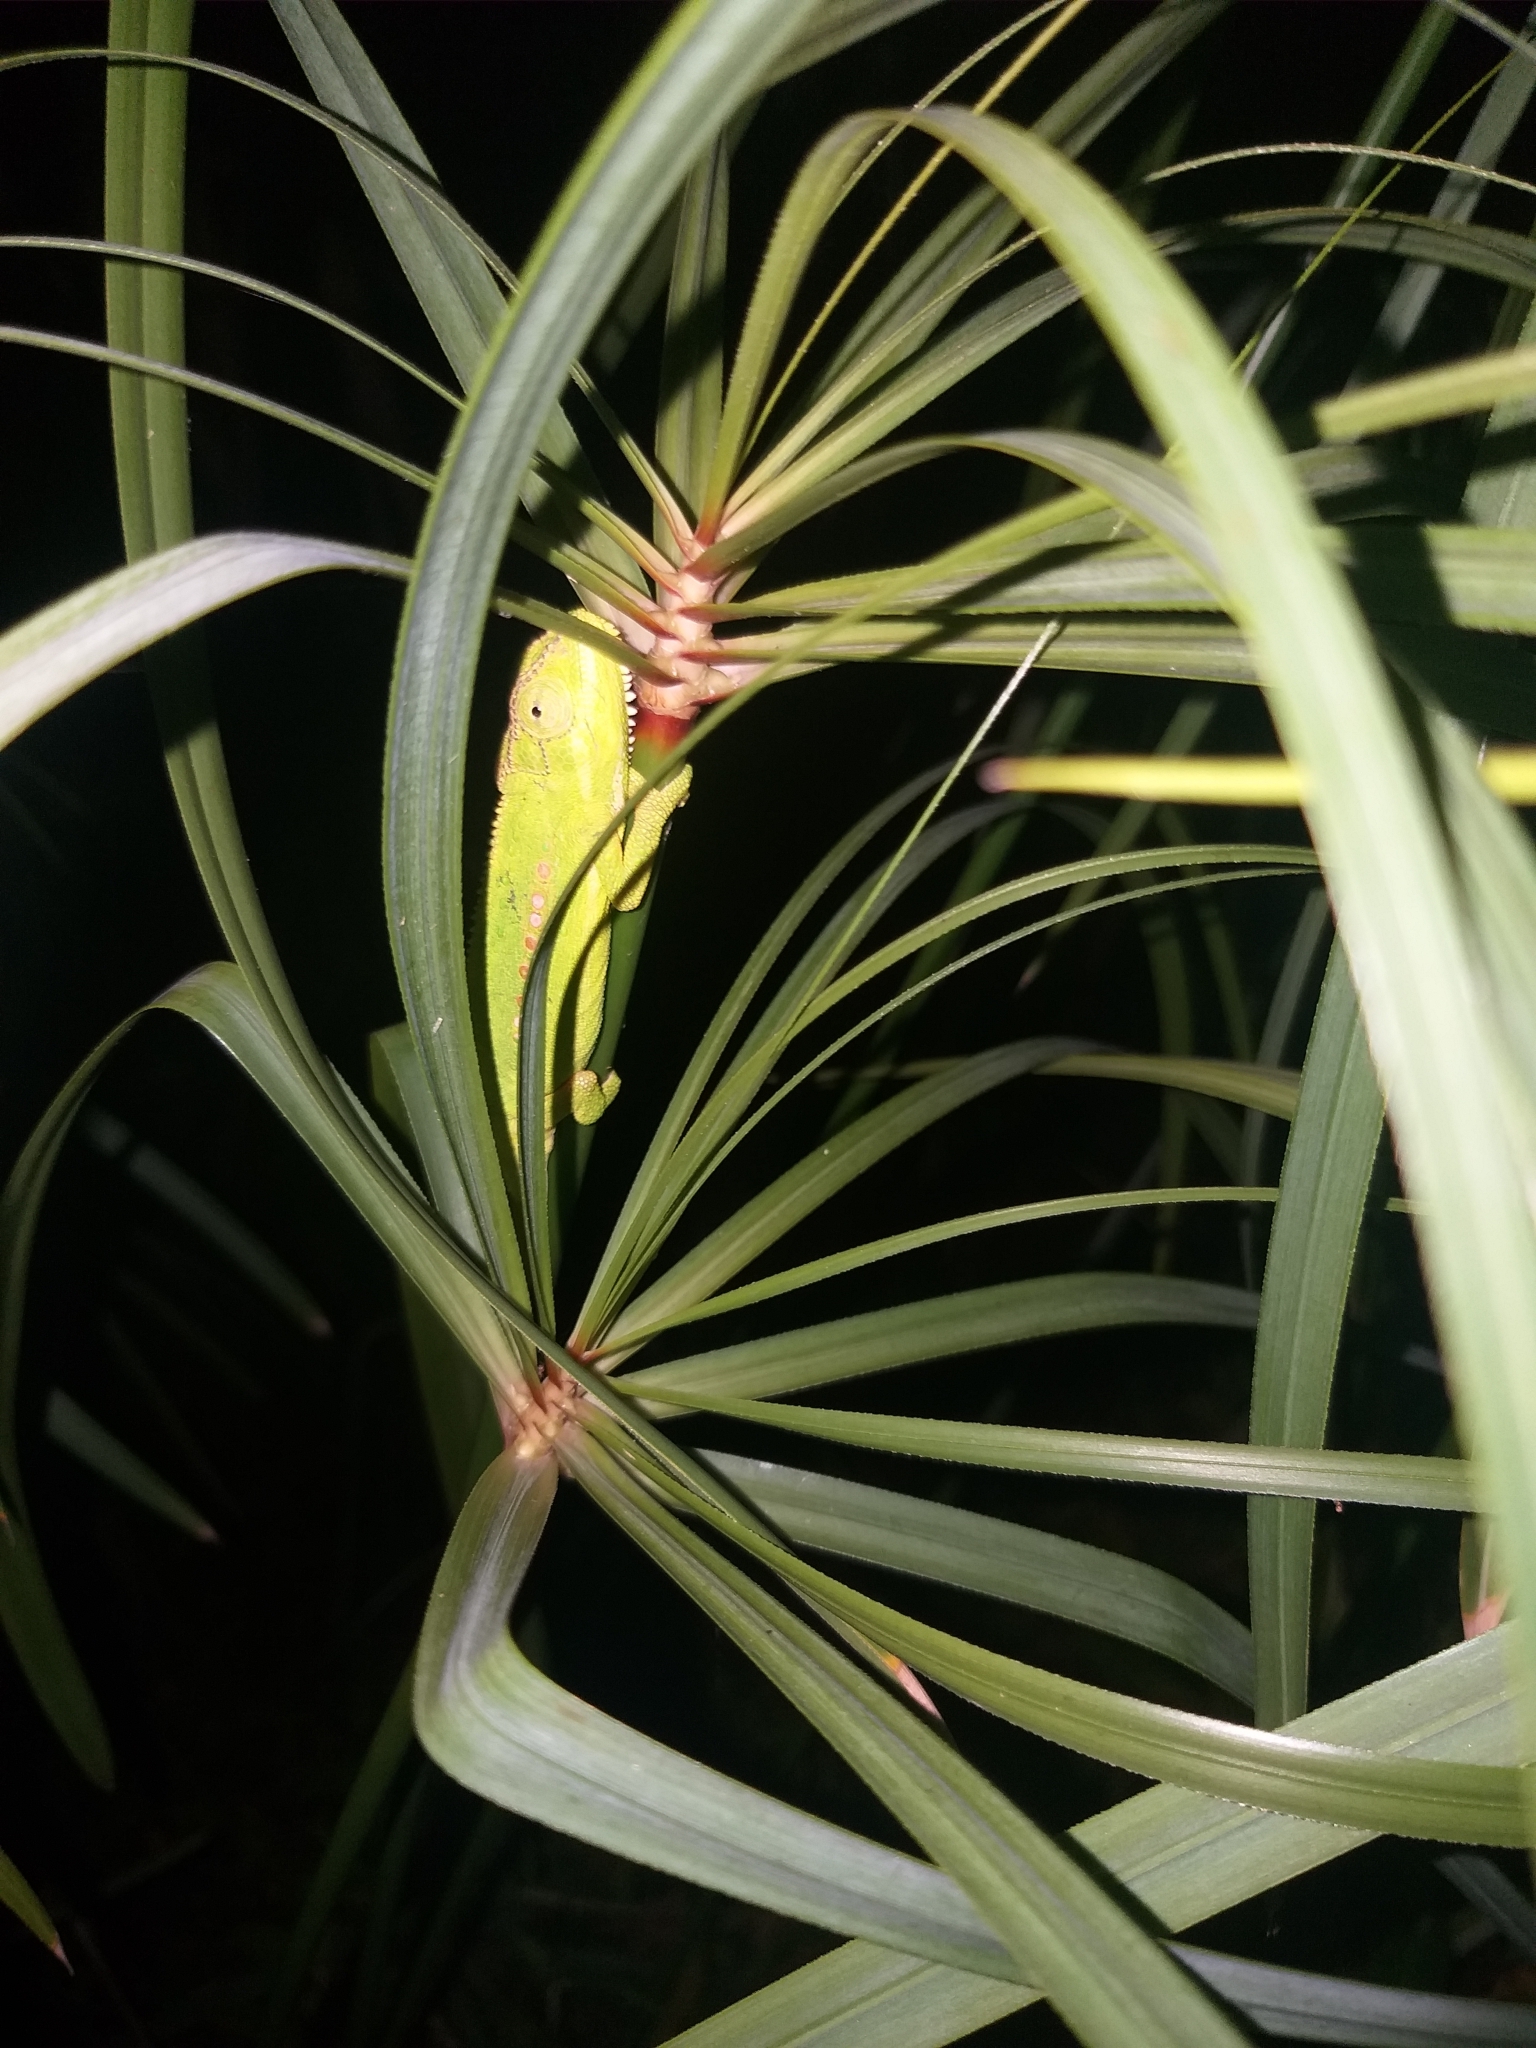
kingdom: Animalia
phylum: Chordata
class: Squamata
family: Chamaeleonidae
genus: Bradypodion
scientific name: Bradypodion pumilum
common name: Cape dwarf chameleon
